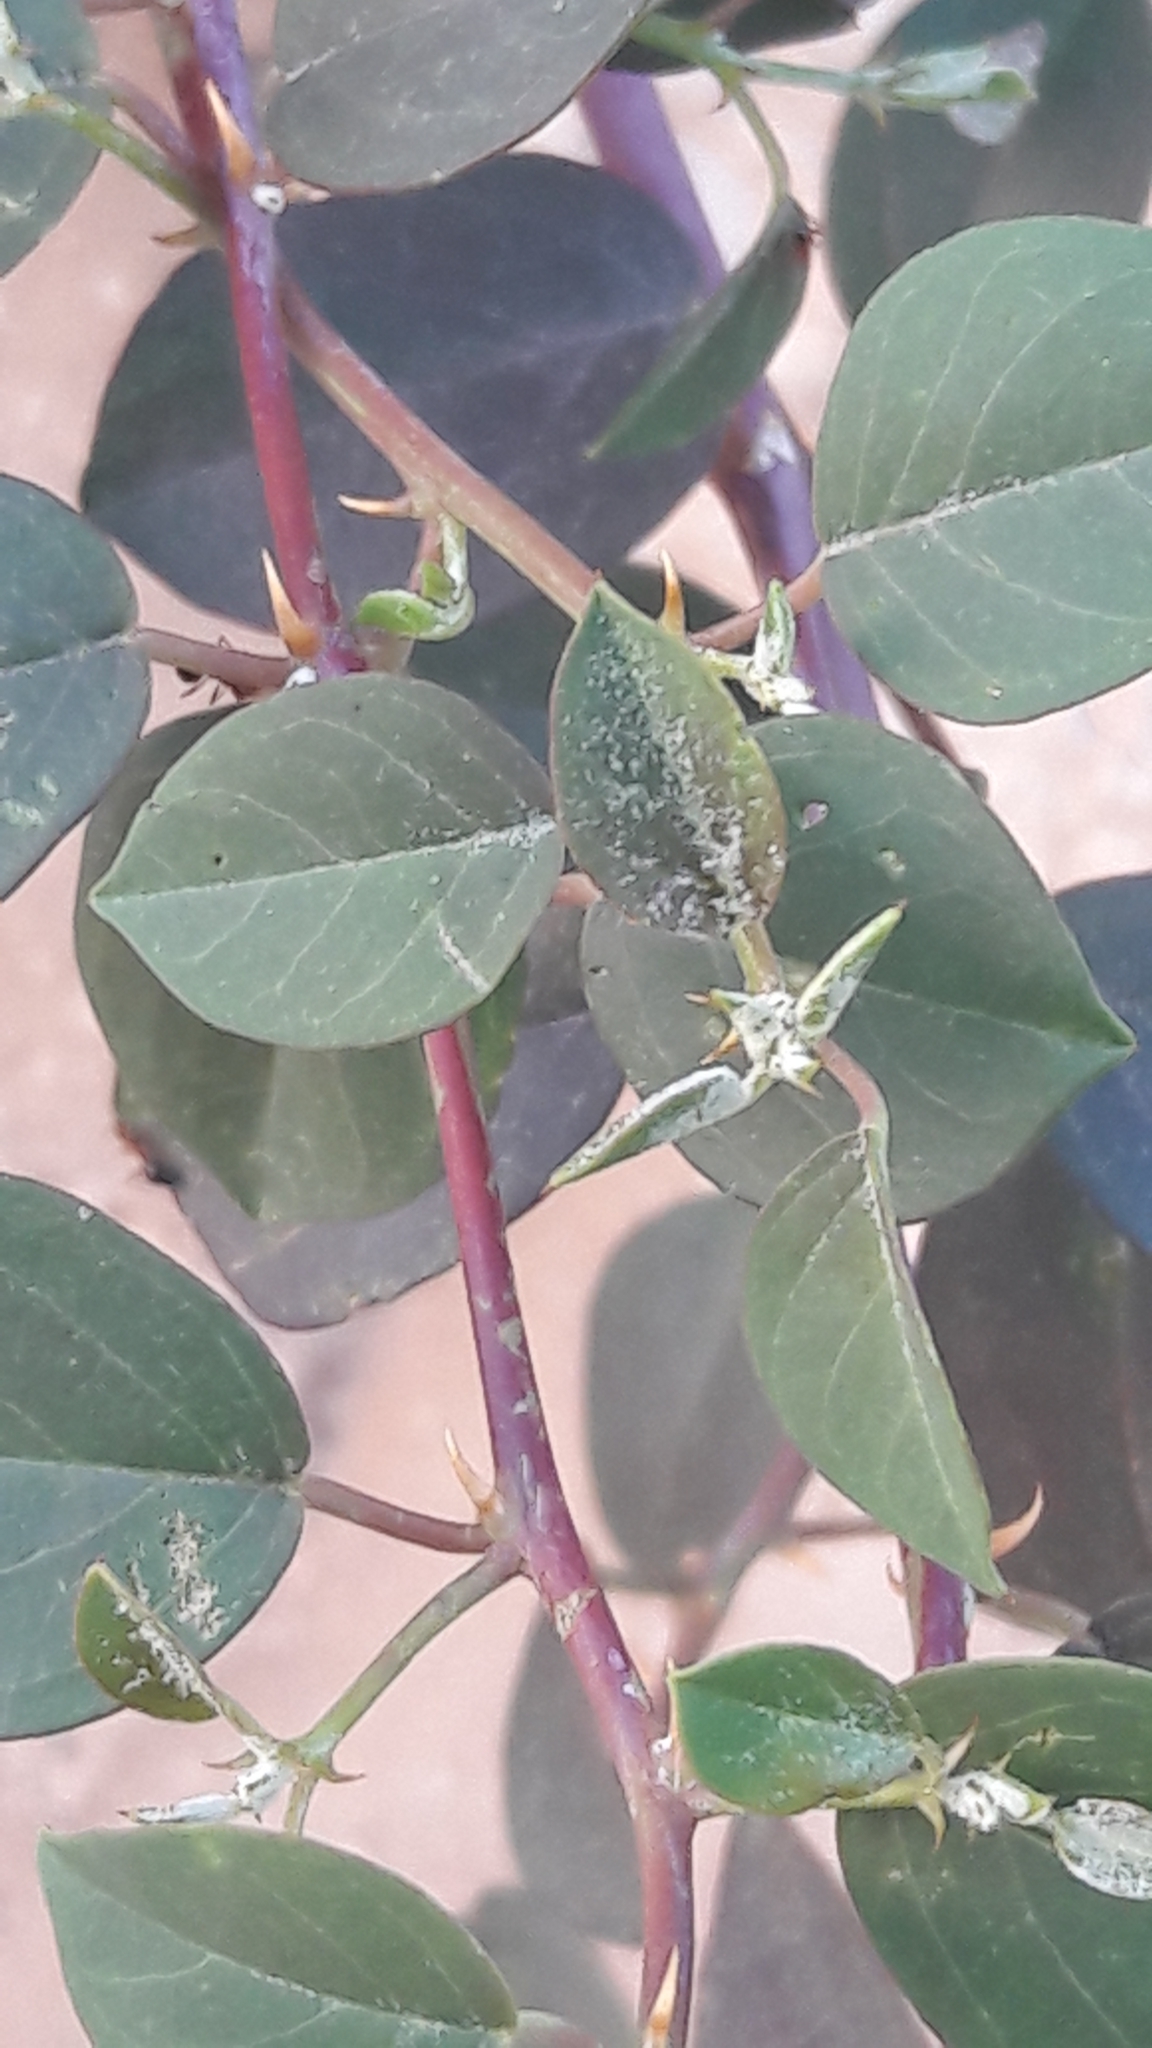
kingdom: Plantae
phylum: Tracheophyta
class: Magnoliopsida
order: Brassicales
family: Capparaceae
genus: Capparis
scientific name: Capparis spinosa
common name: Caper
